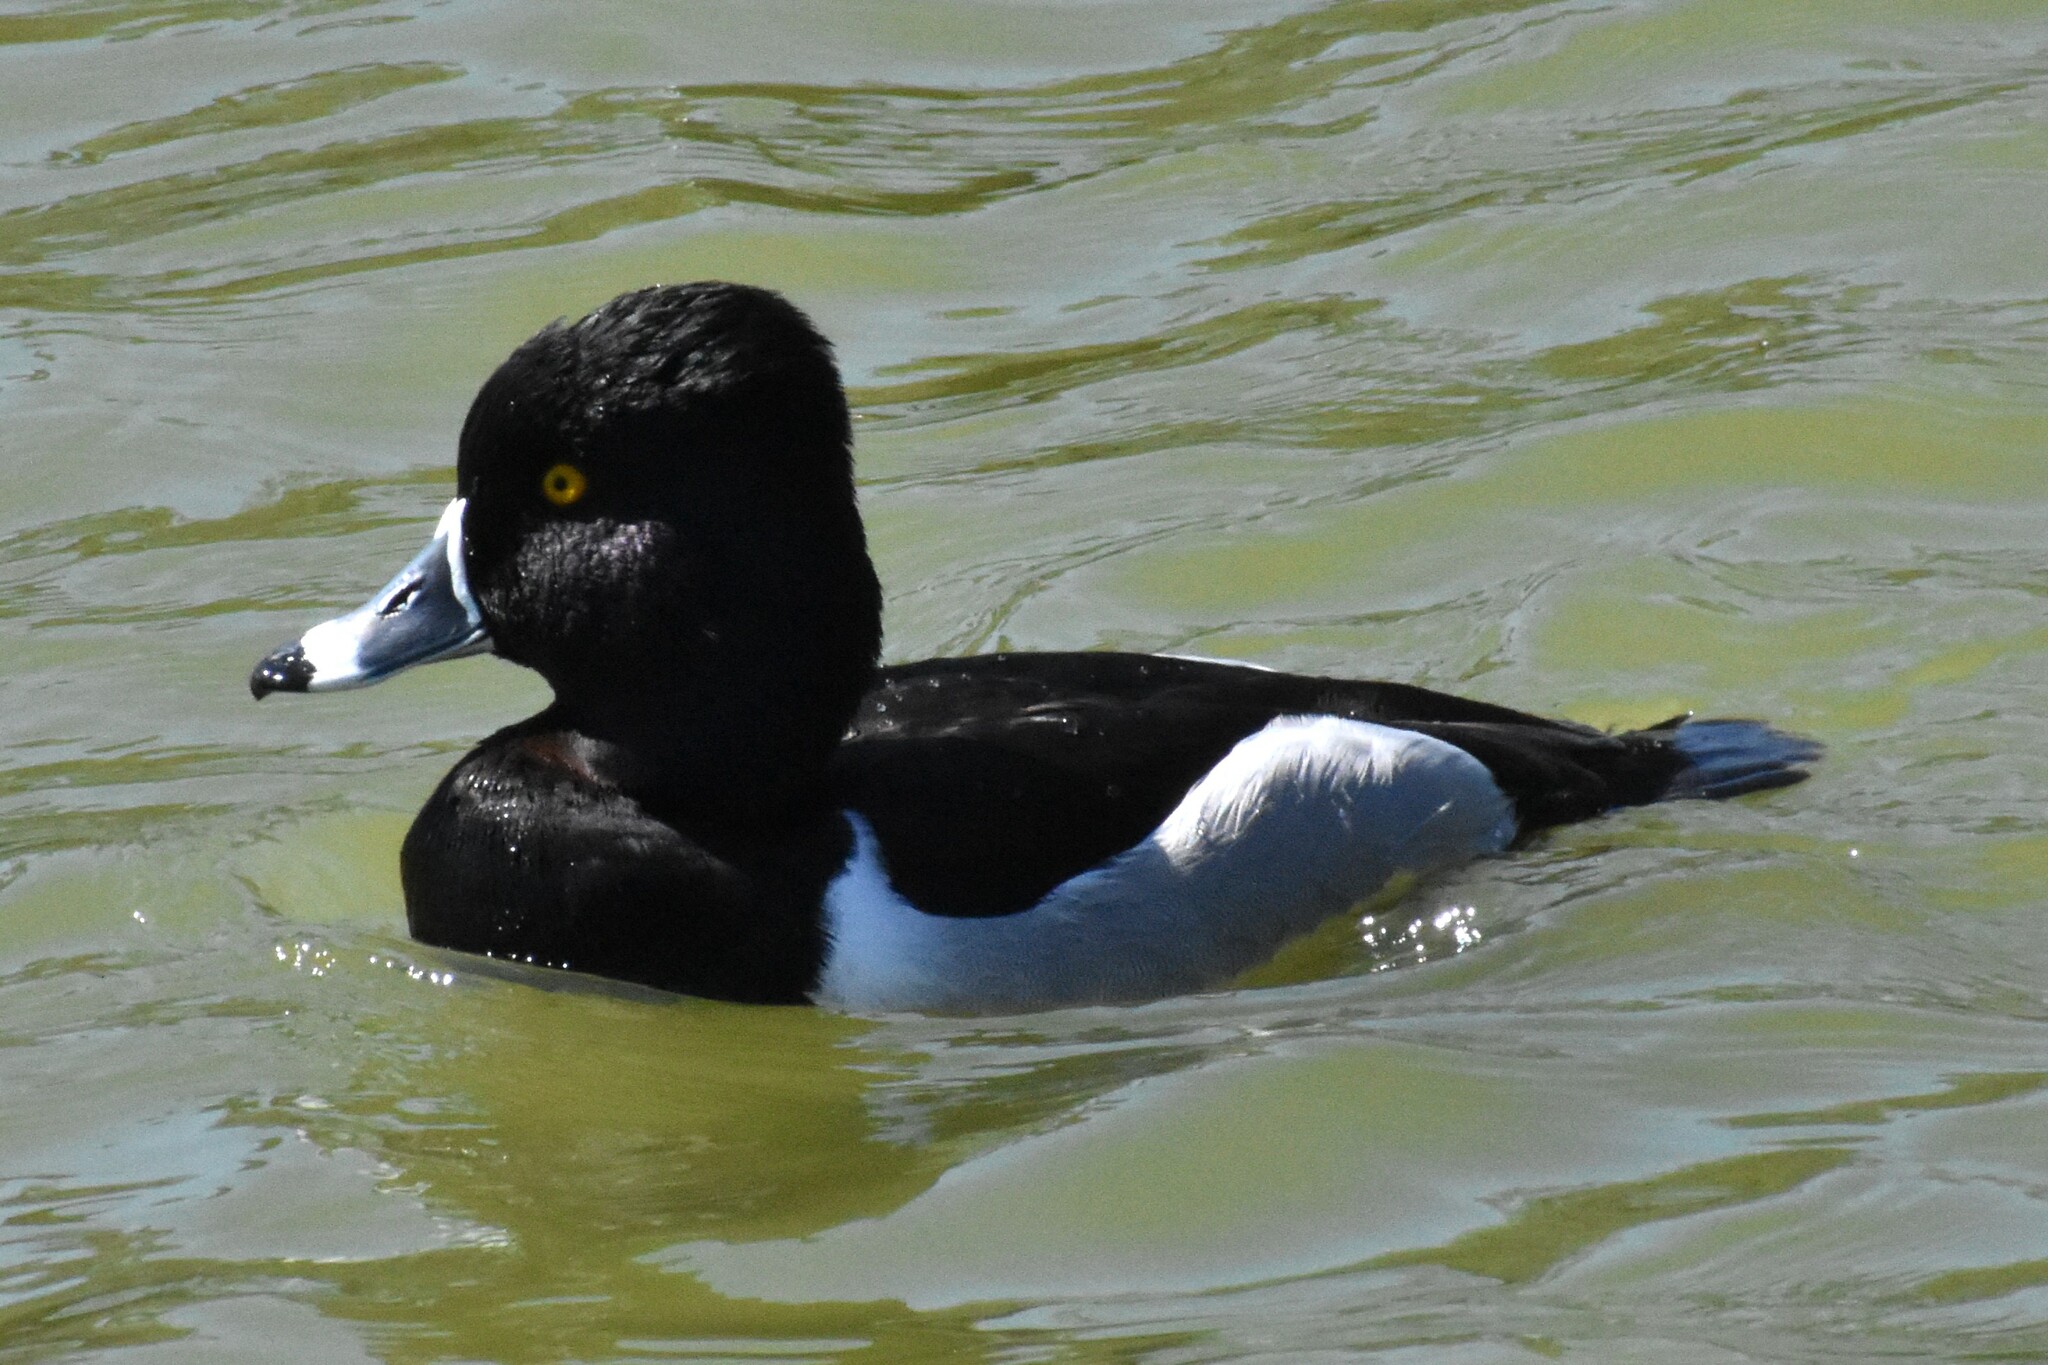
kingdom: Animalia
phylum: Chordata
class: Aves
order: Anseriformes
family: Anatidae
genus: Aythya
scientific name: Aythya collaris
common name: Ring-necked duck
